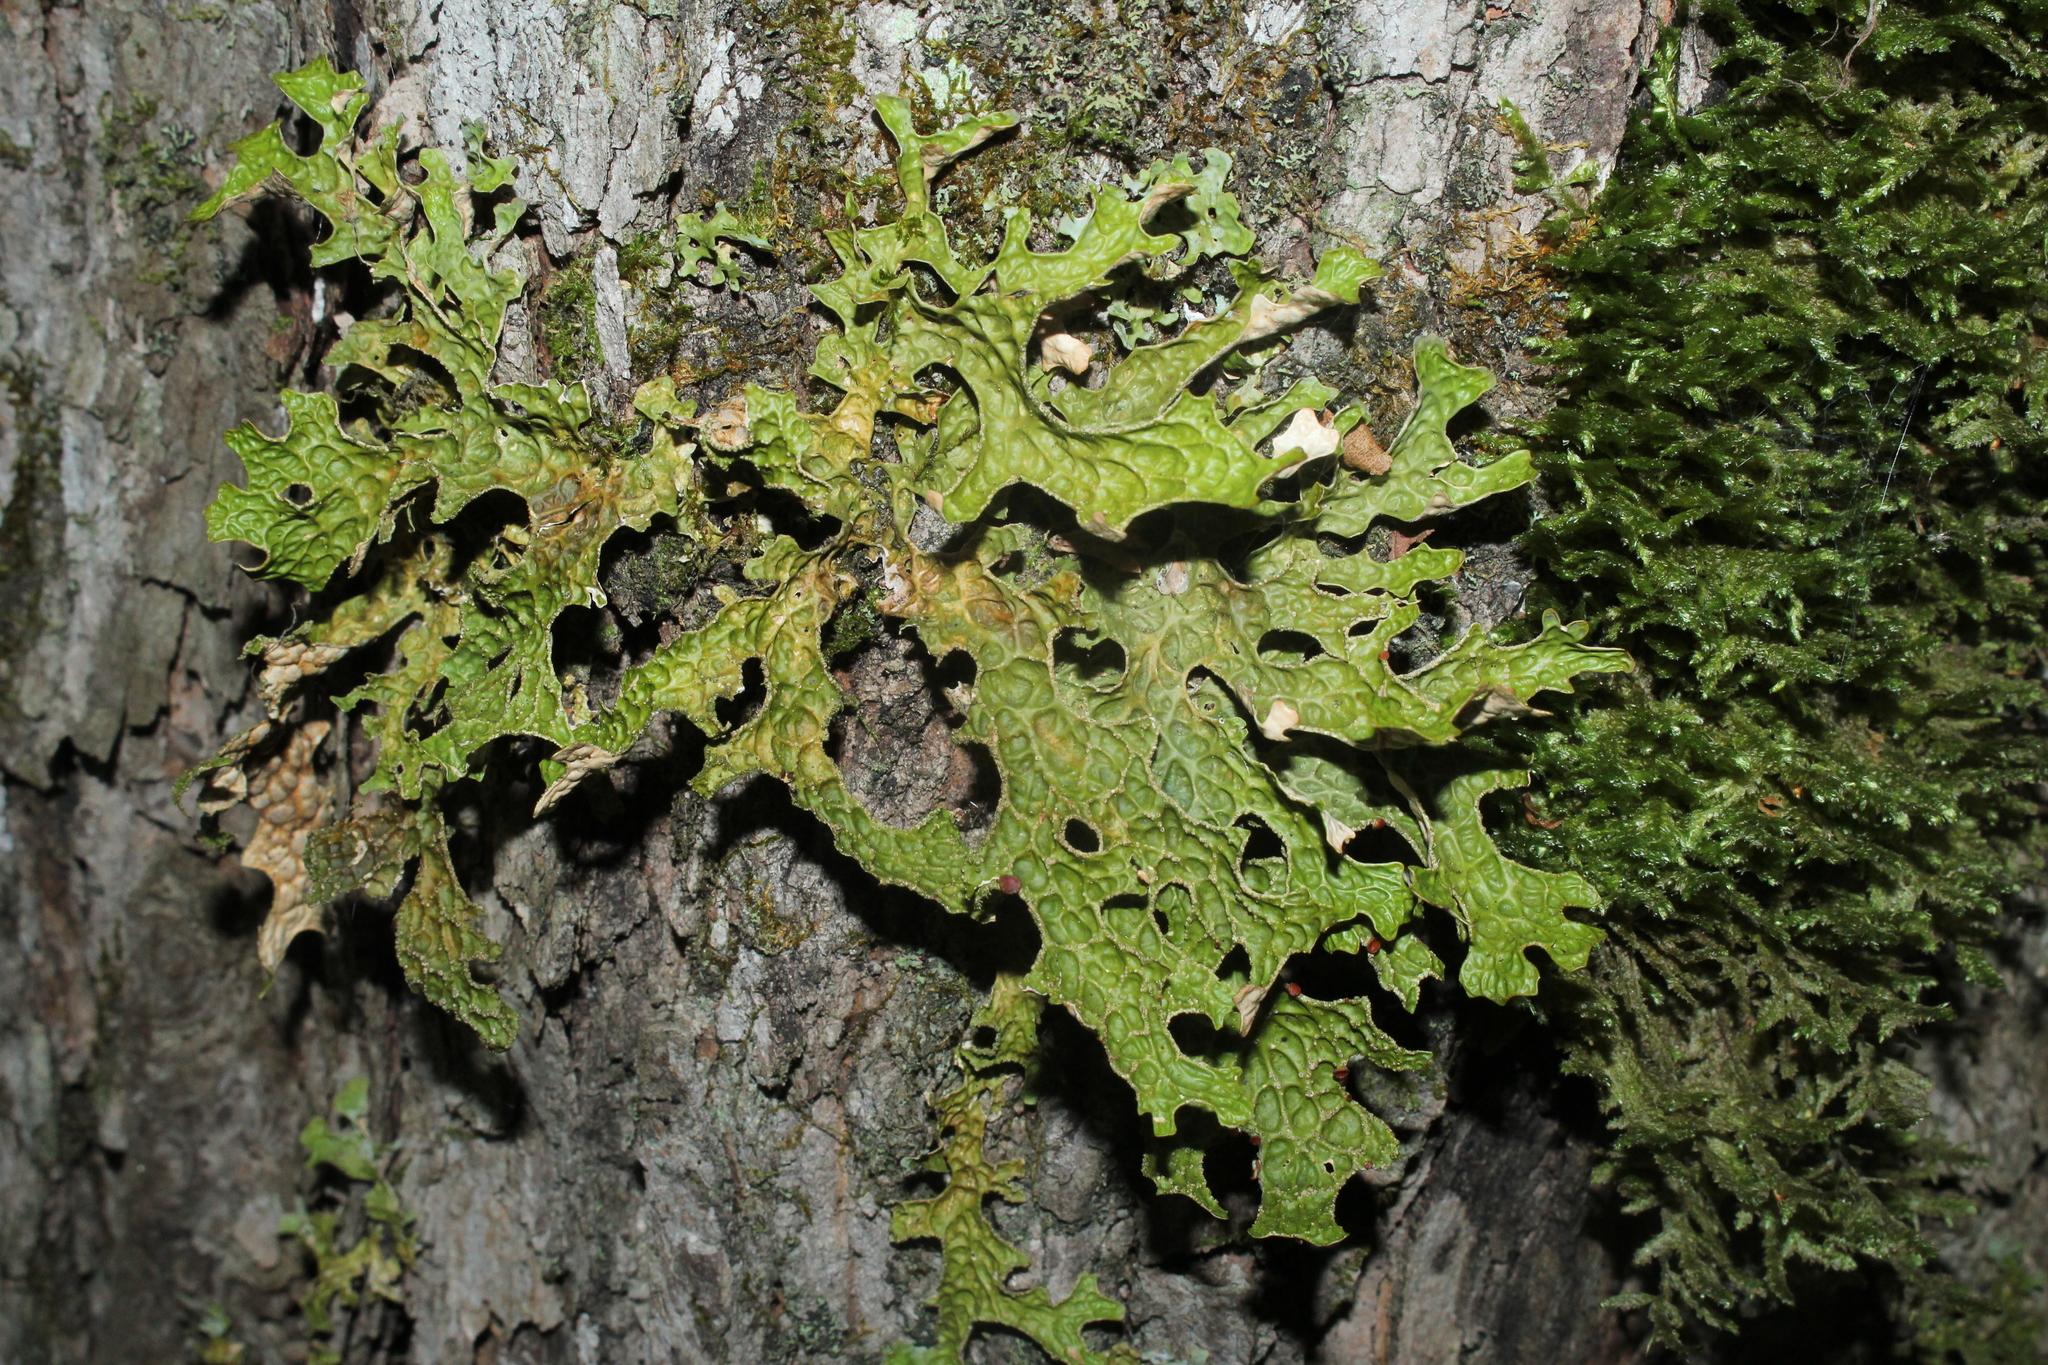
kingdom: Fungi
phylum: Ascomycota
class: Lecanoromycetes
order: Peltigerales
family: Lobariaceae
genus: Lobaria
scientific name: Lobaria pulmonaria
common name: Lungwort
